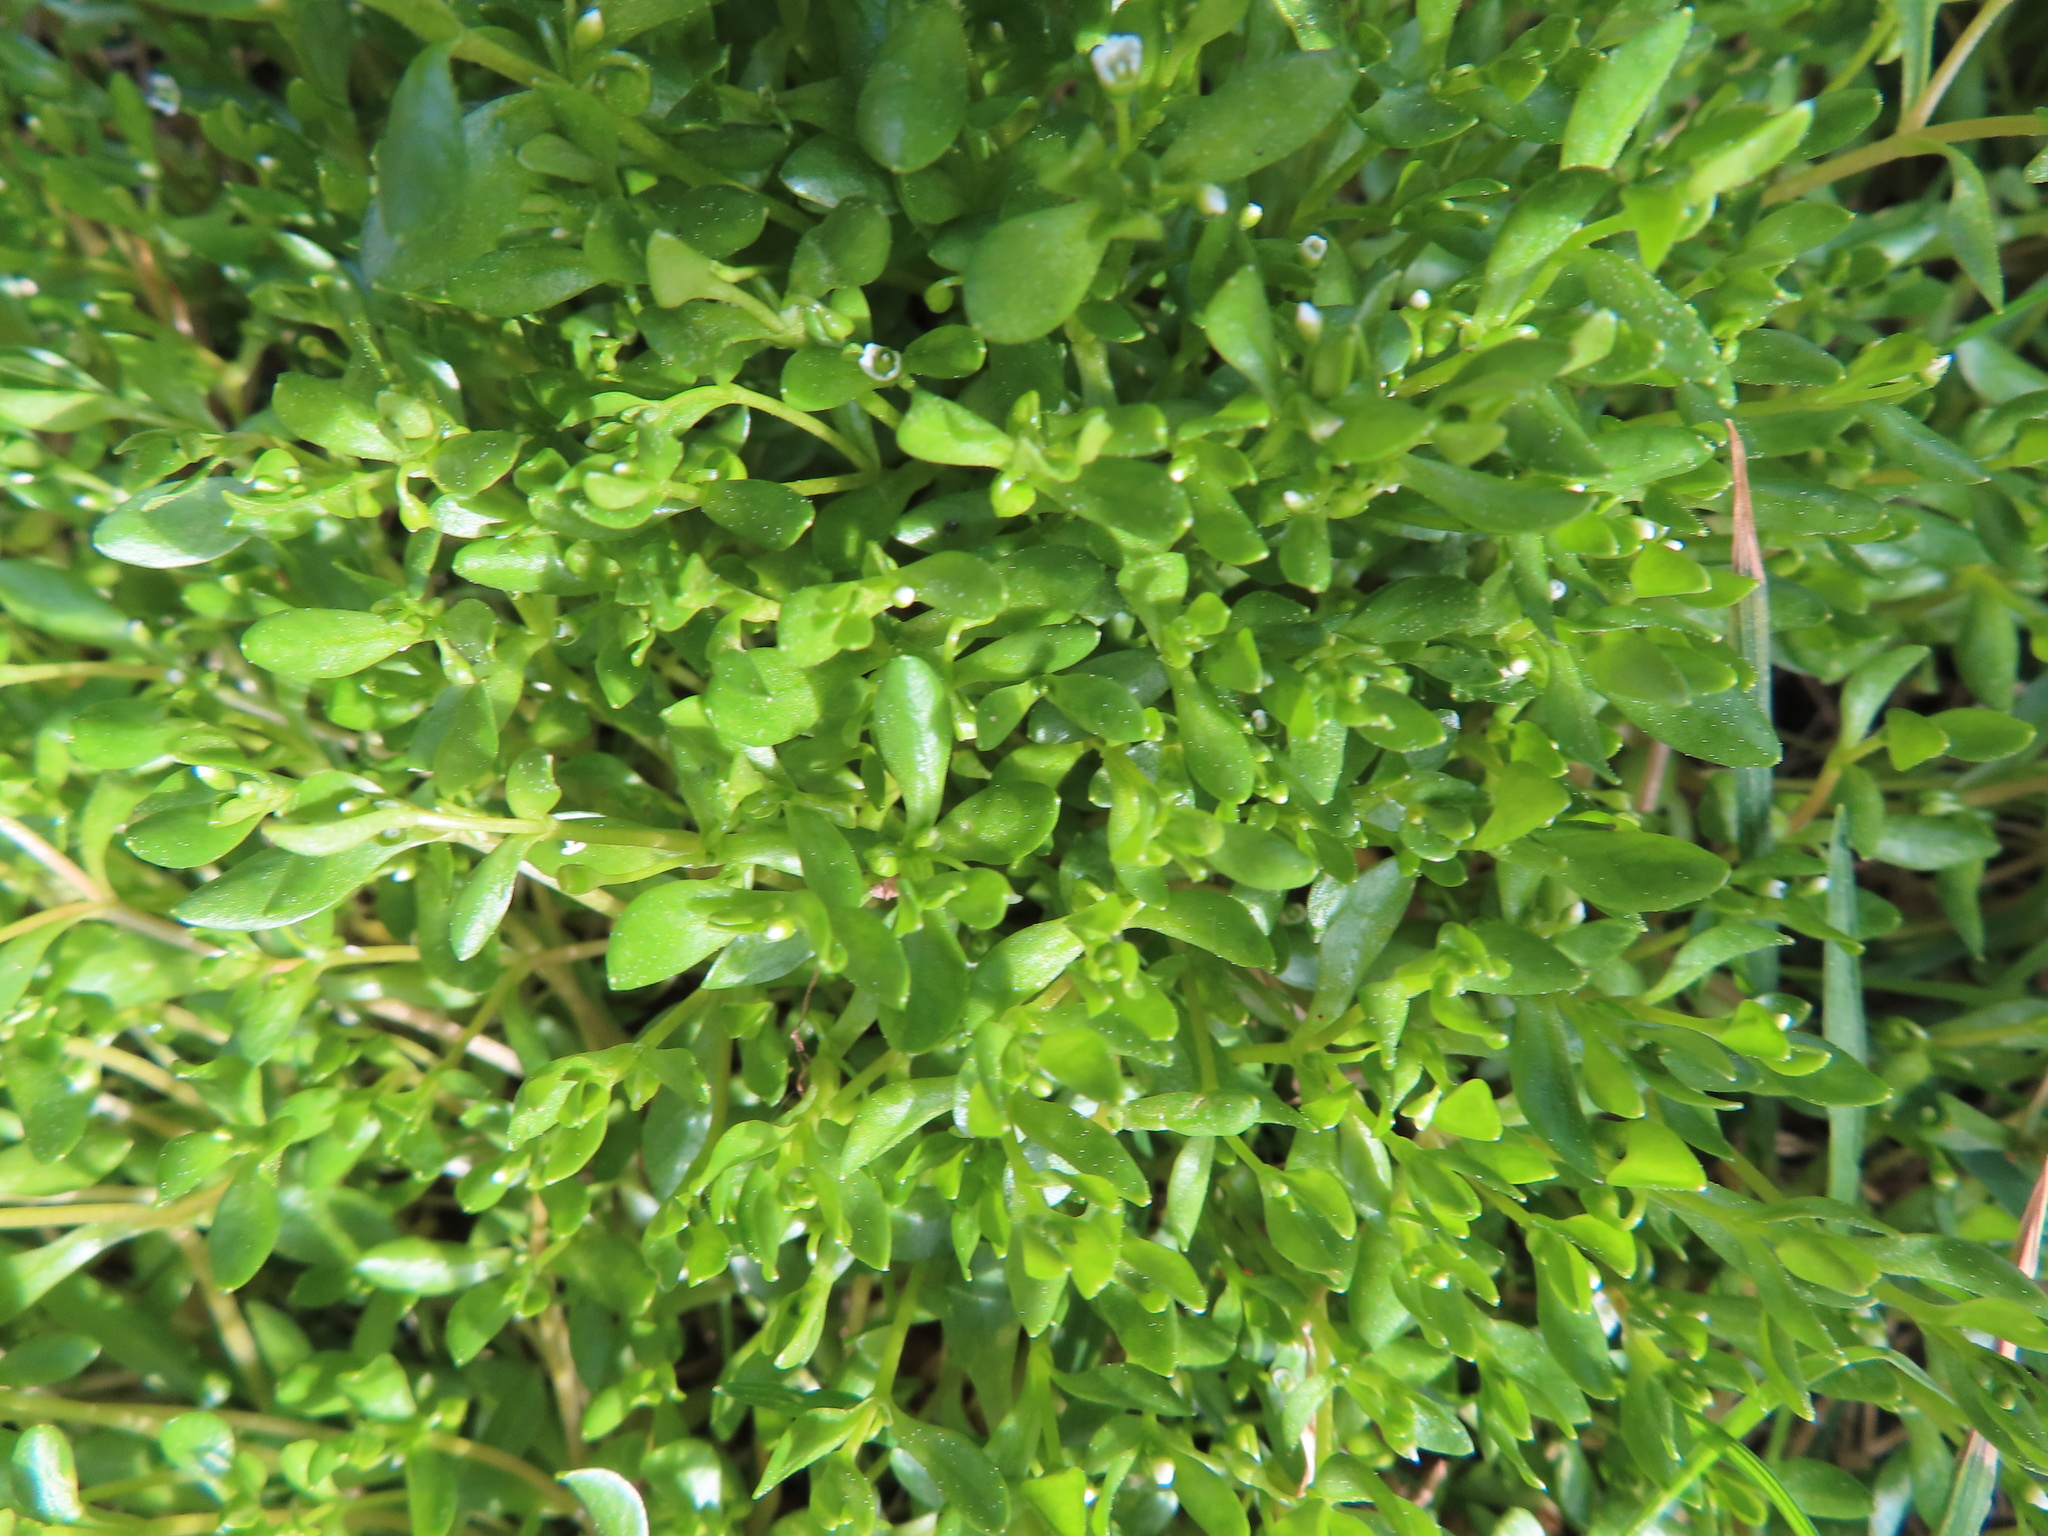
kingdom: Plantae
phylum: Tracheophyta
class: Magnoliopsida
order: Caryophyllales
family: Montiaceae
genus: Montia
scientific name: Montia fontana
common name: Blinks
